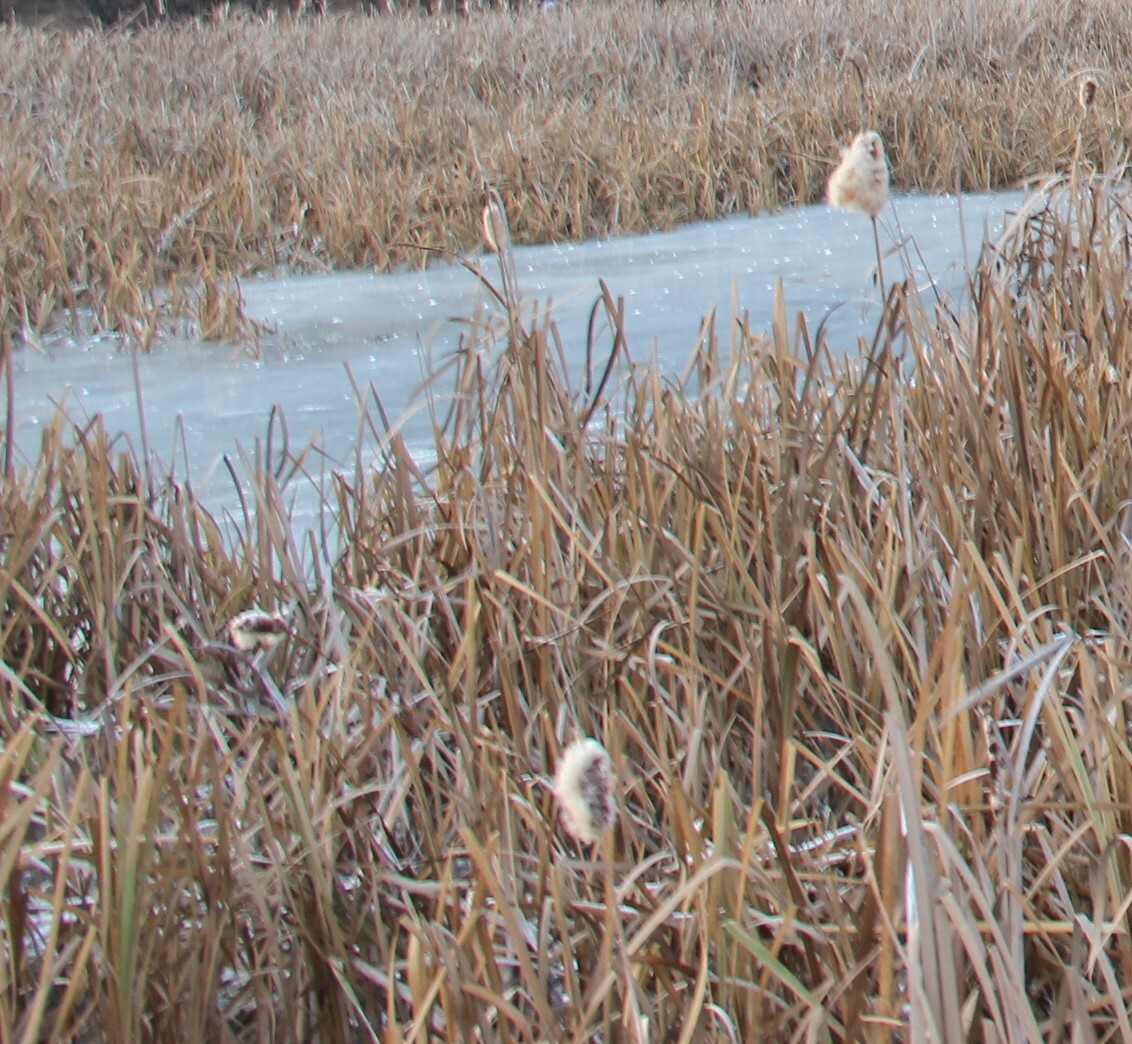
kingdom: Plantae
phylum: Tracheophyta
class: Liliopsida
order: Poales
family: Typhaceae
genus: Typha
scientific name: Typha latifolia
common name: Broadleaf cattail
